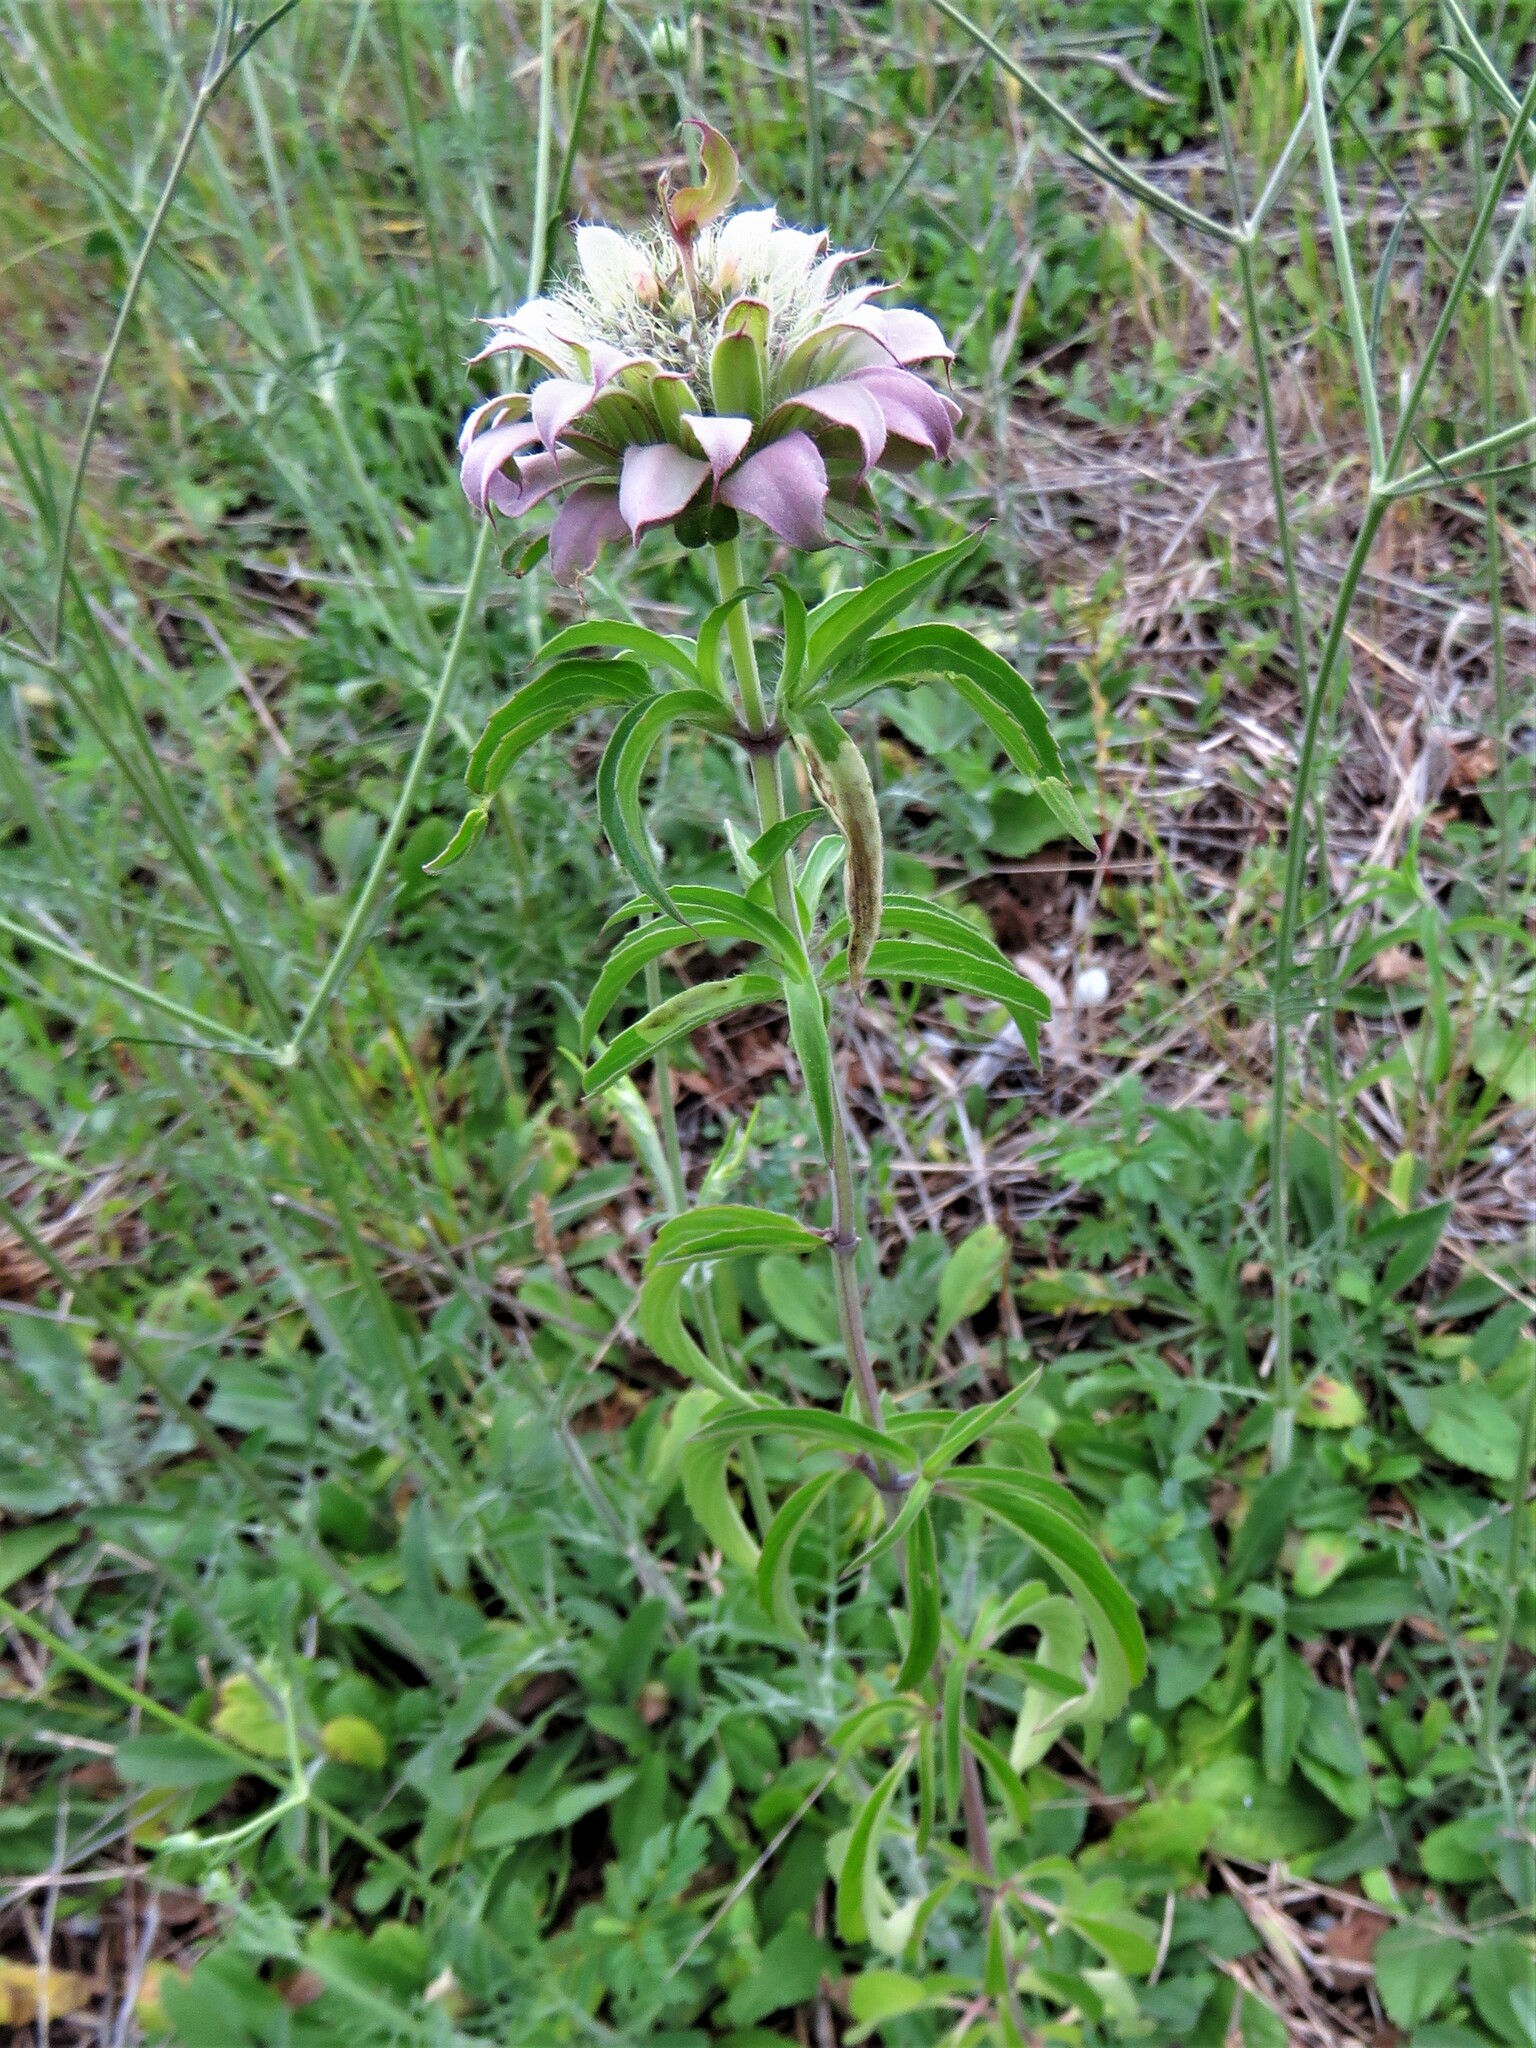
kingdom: Plantae
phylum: Tracheophyta
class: Magnoliopsida
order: Lamiales
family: Lamiaceae
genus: Monarda
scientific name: Monarda citriodora
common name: Lemon beebalm
